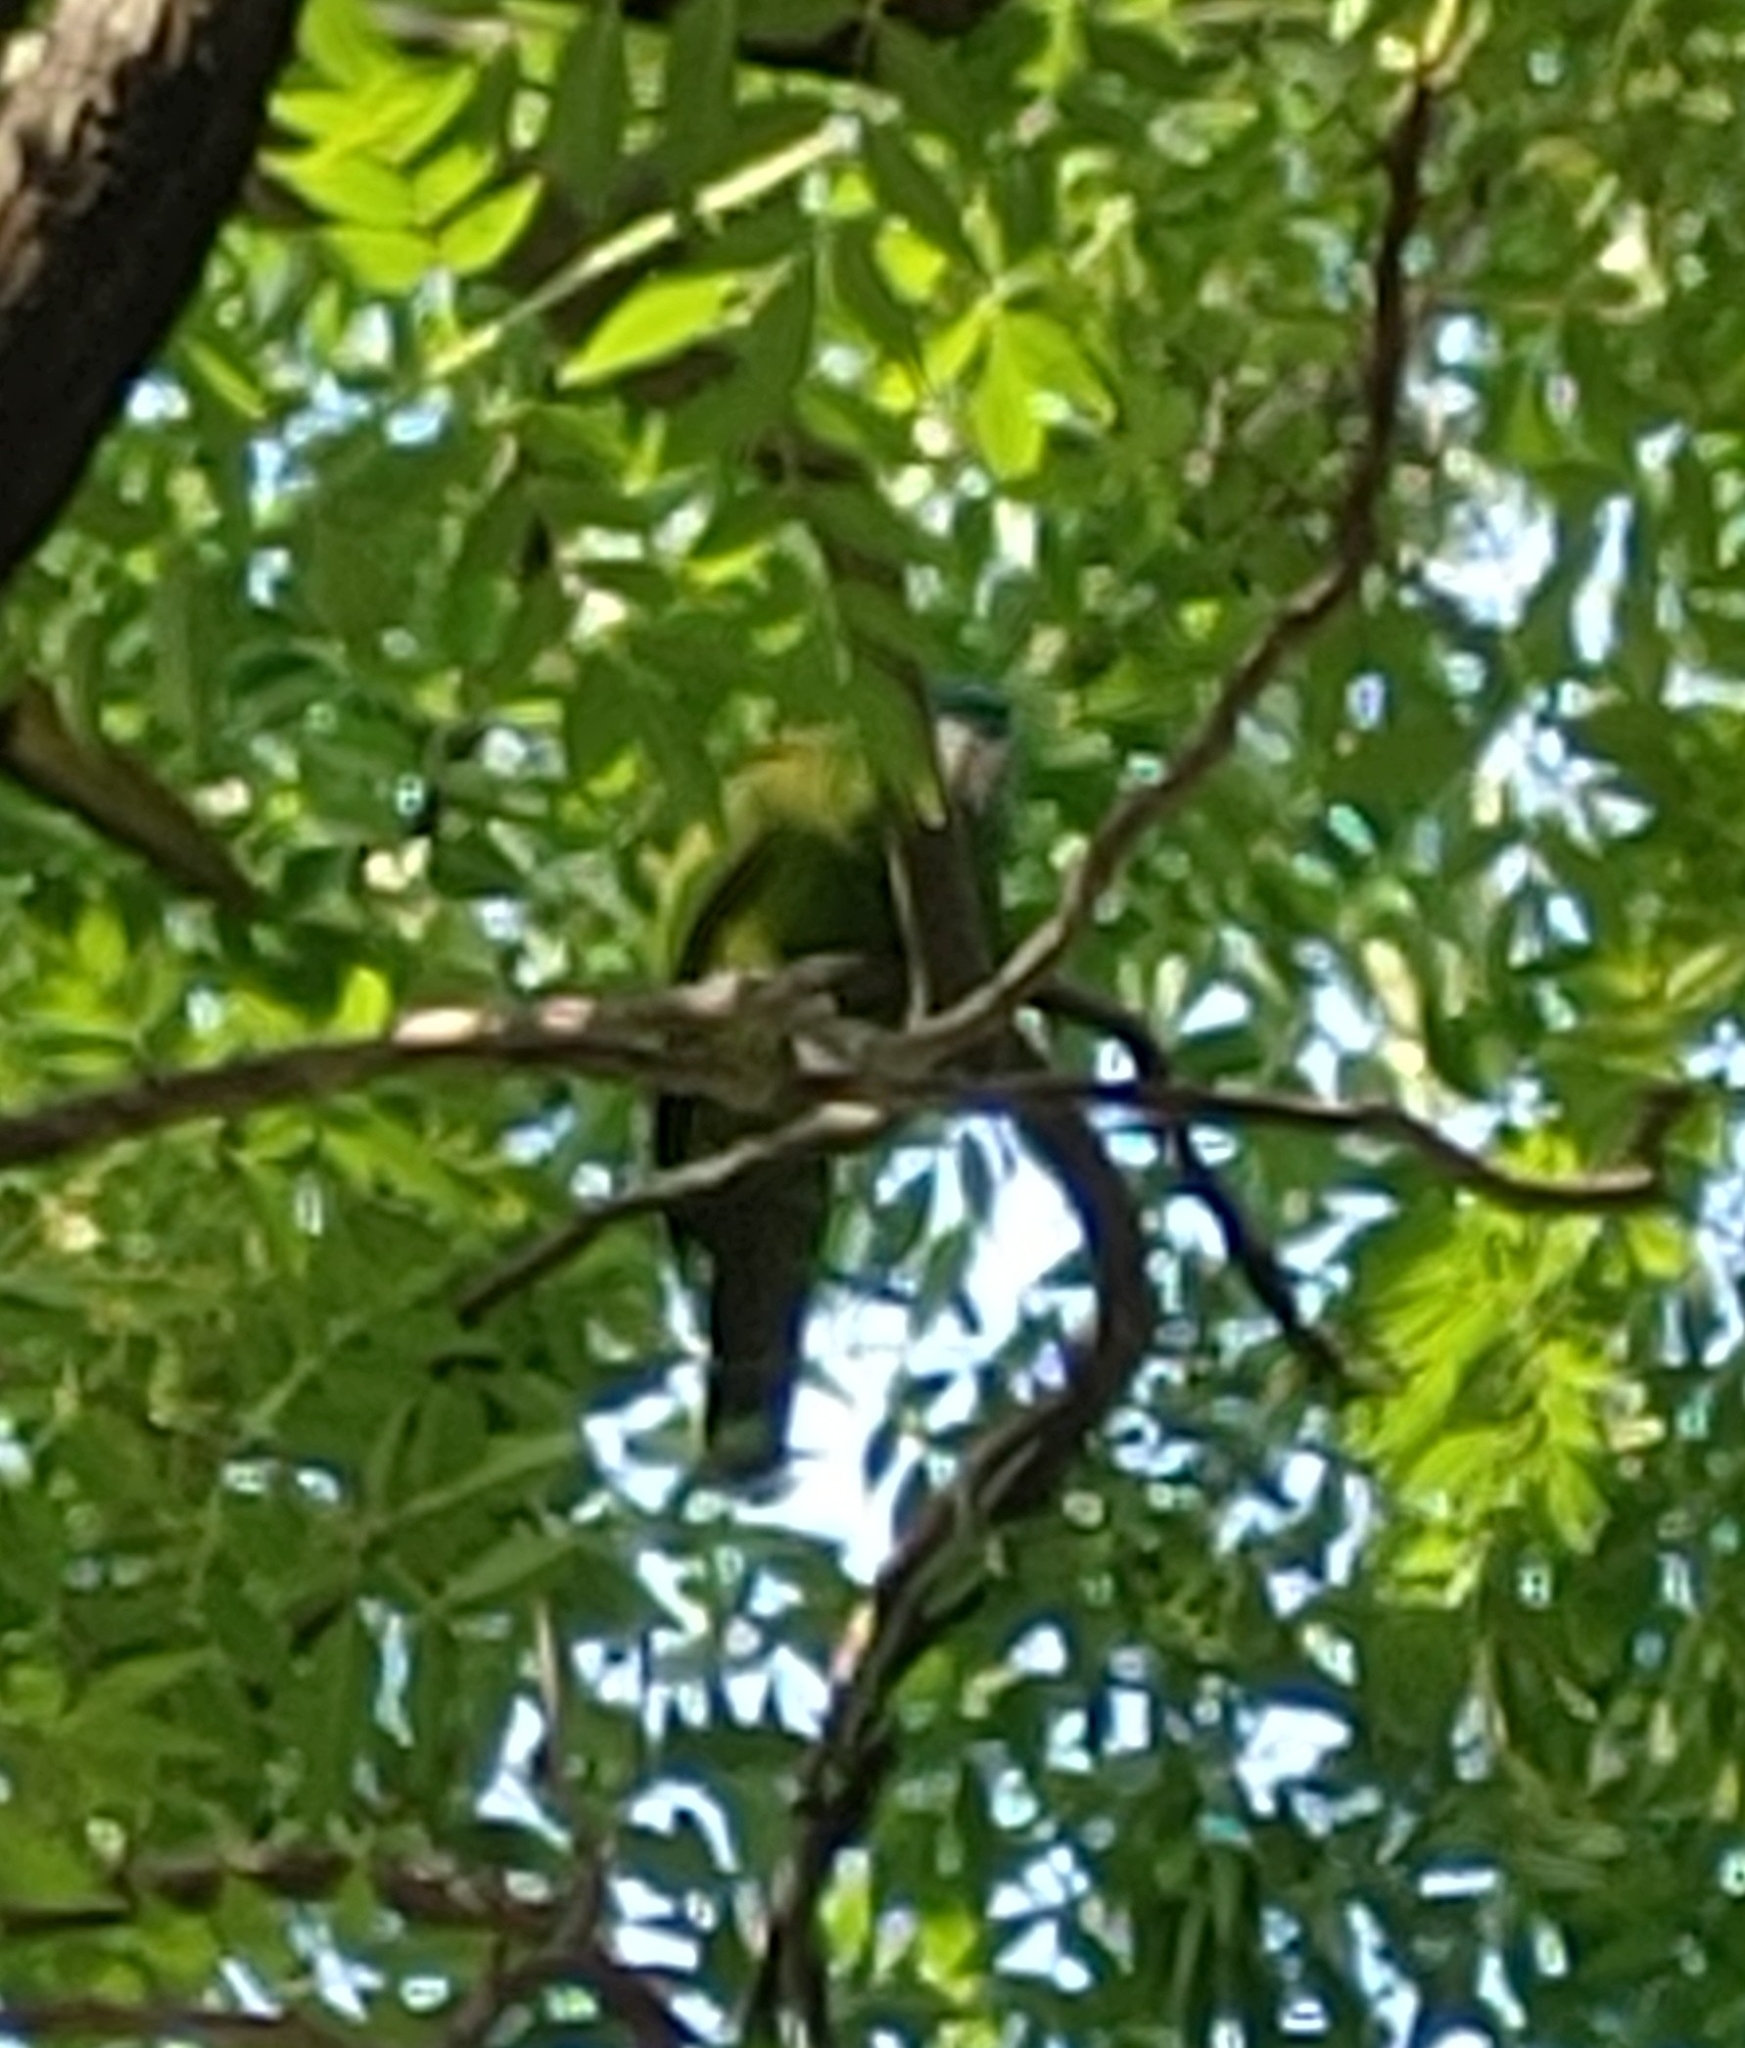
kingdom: Animalia
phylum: Chordata
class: Aves
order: Psittaciformes
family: Psittacidae
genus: Diopsittaca
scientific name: Diopsittaca nobilis
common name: Red-shouldered macaw
